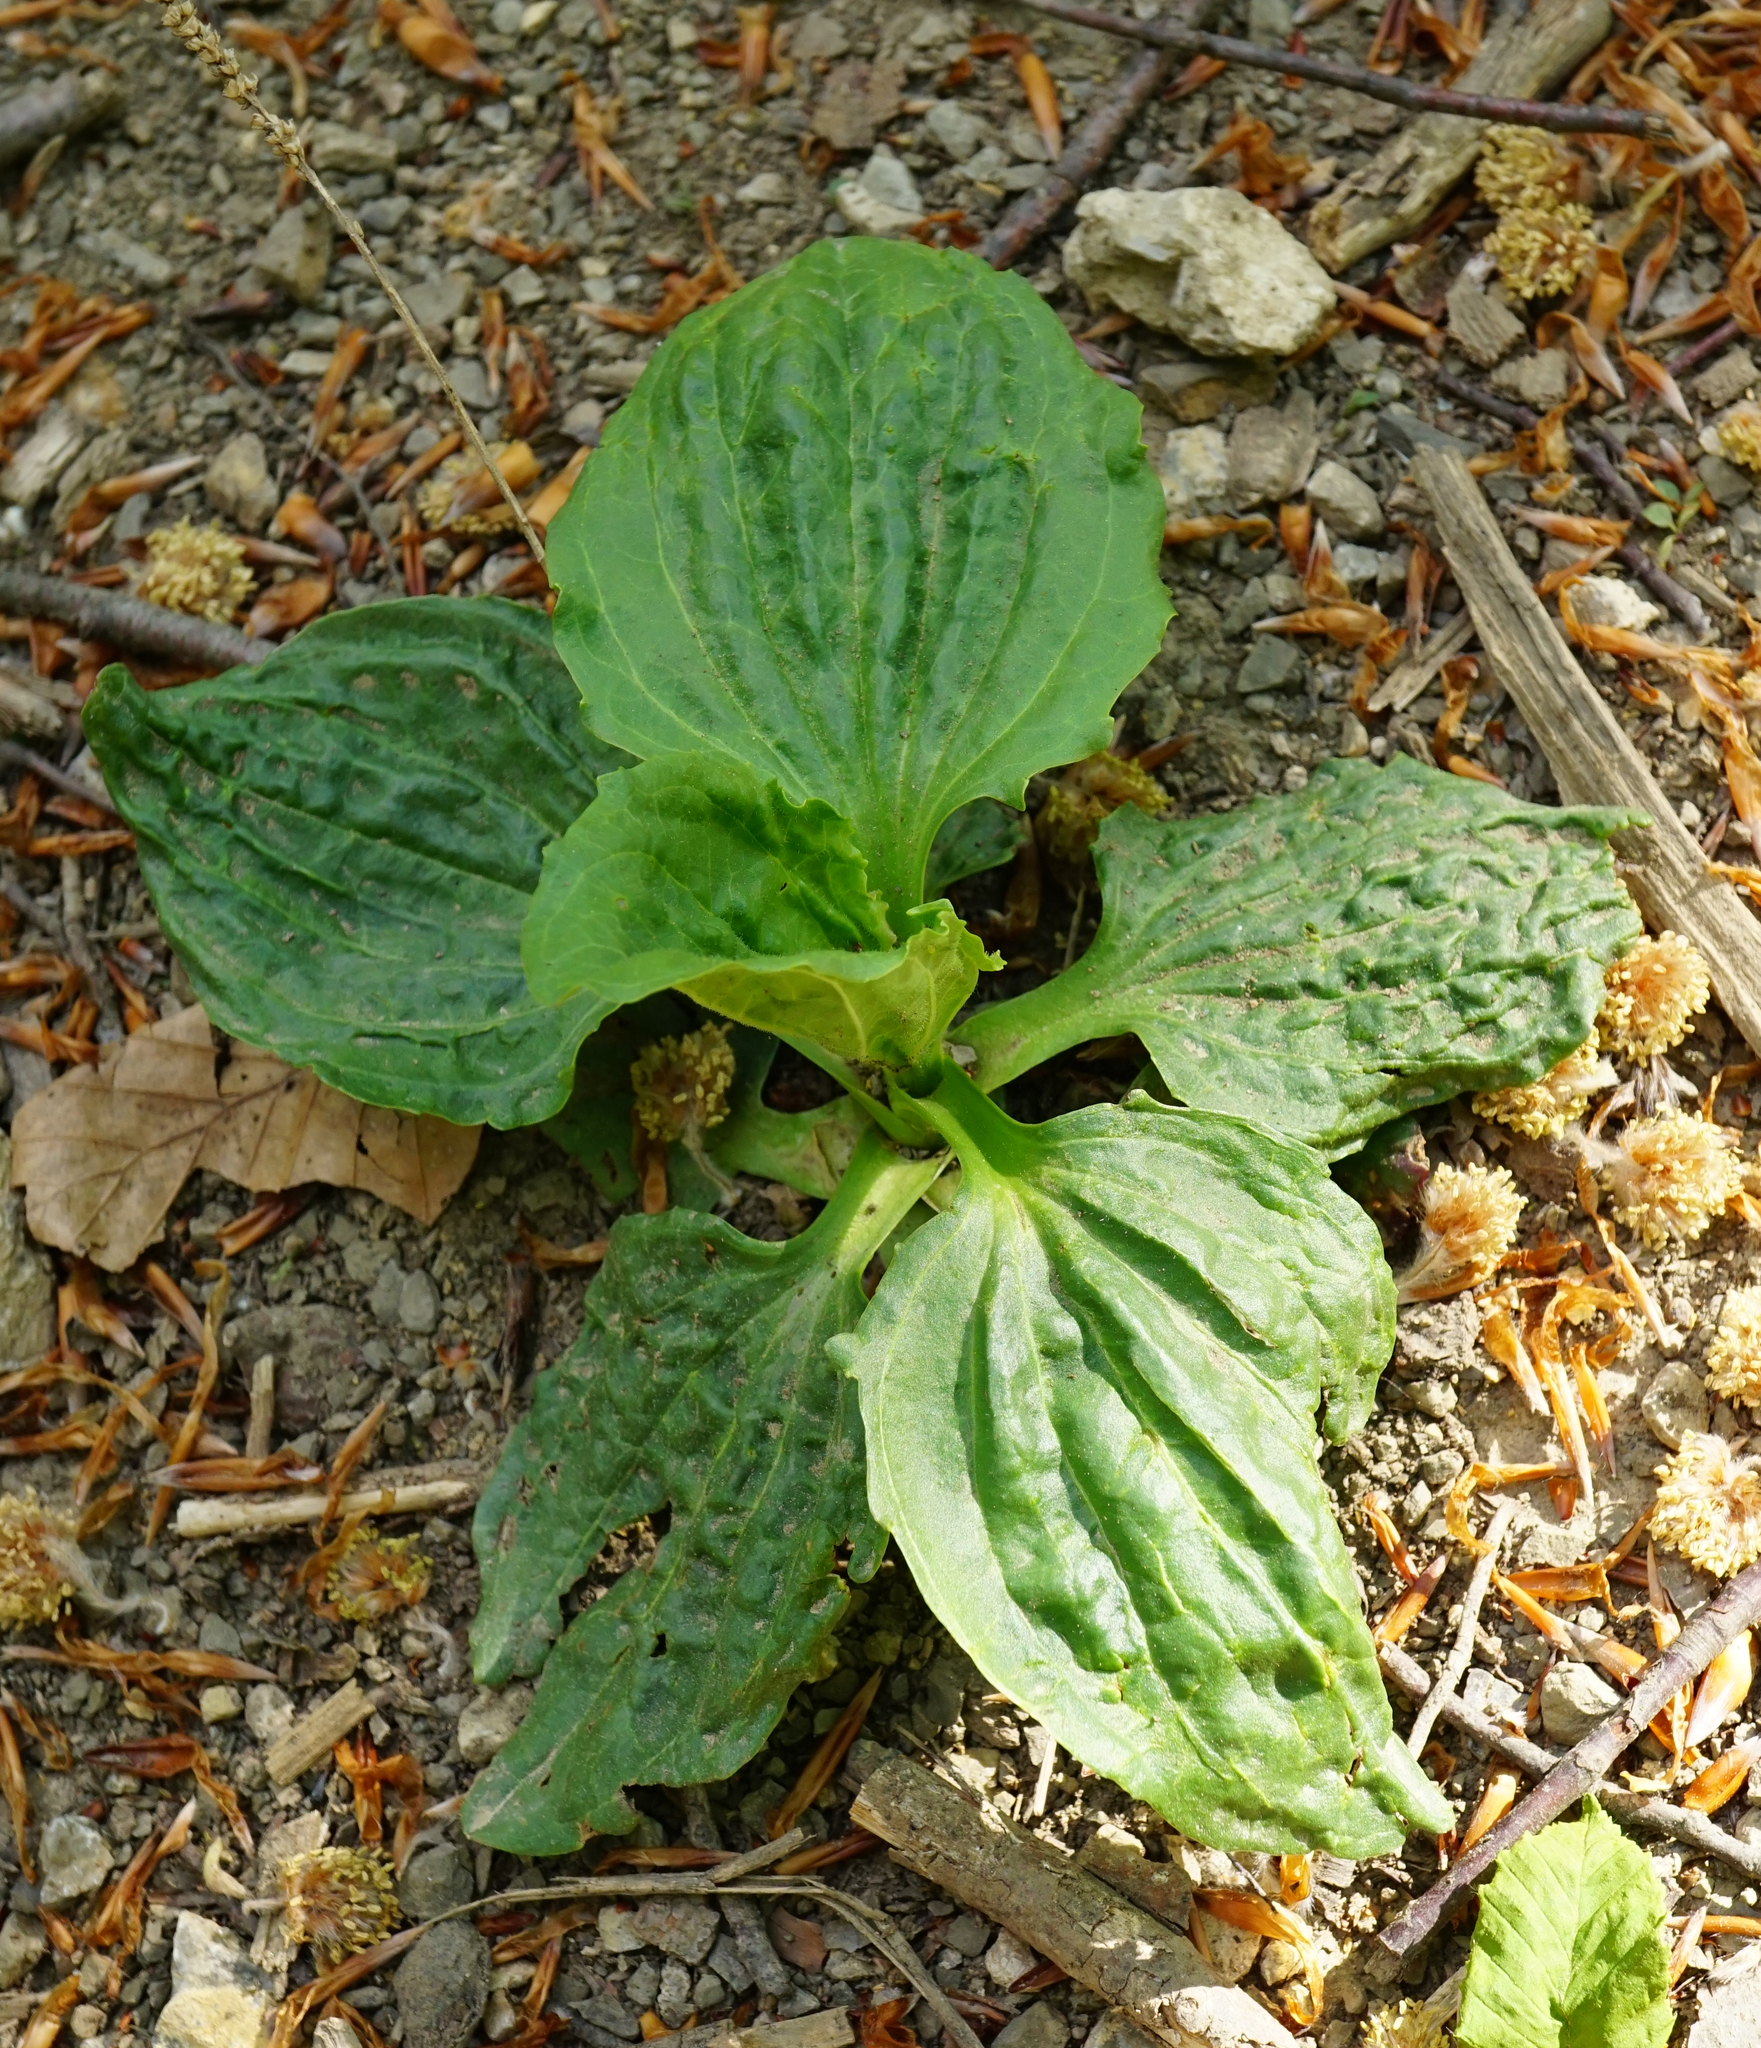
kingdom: Plantae
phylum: Tracheophyta
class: Magnoliopsida
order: Lamiales
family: Plantaginaceae
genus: Plantago
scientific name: Plantago major
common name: Common plantain
